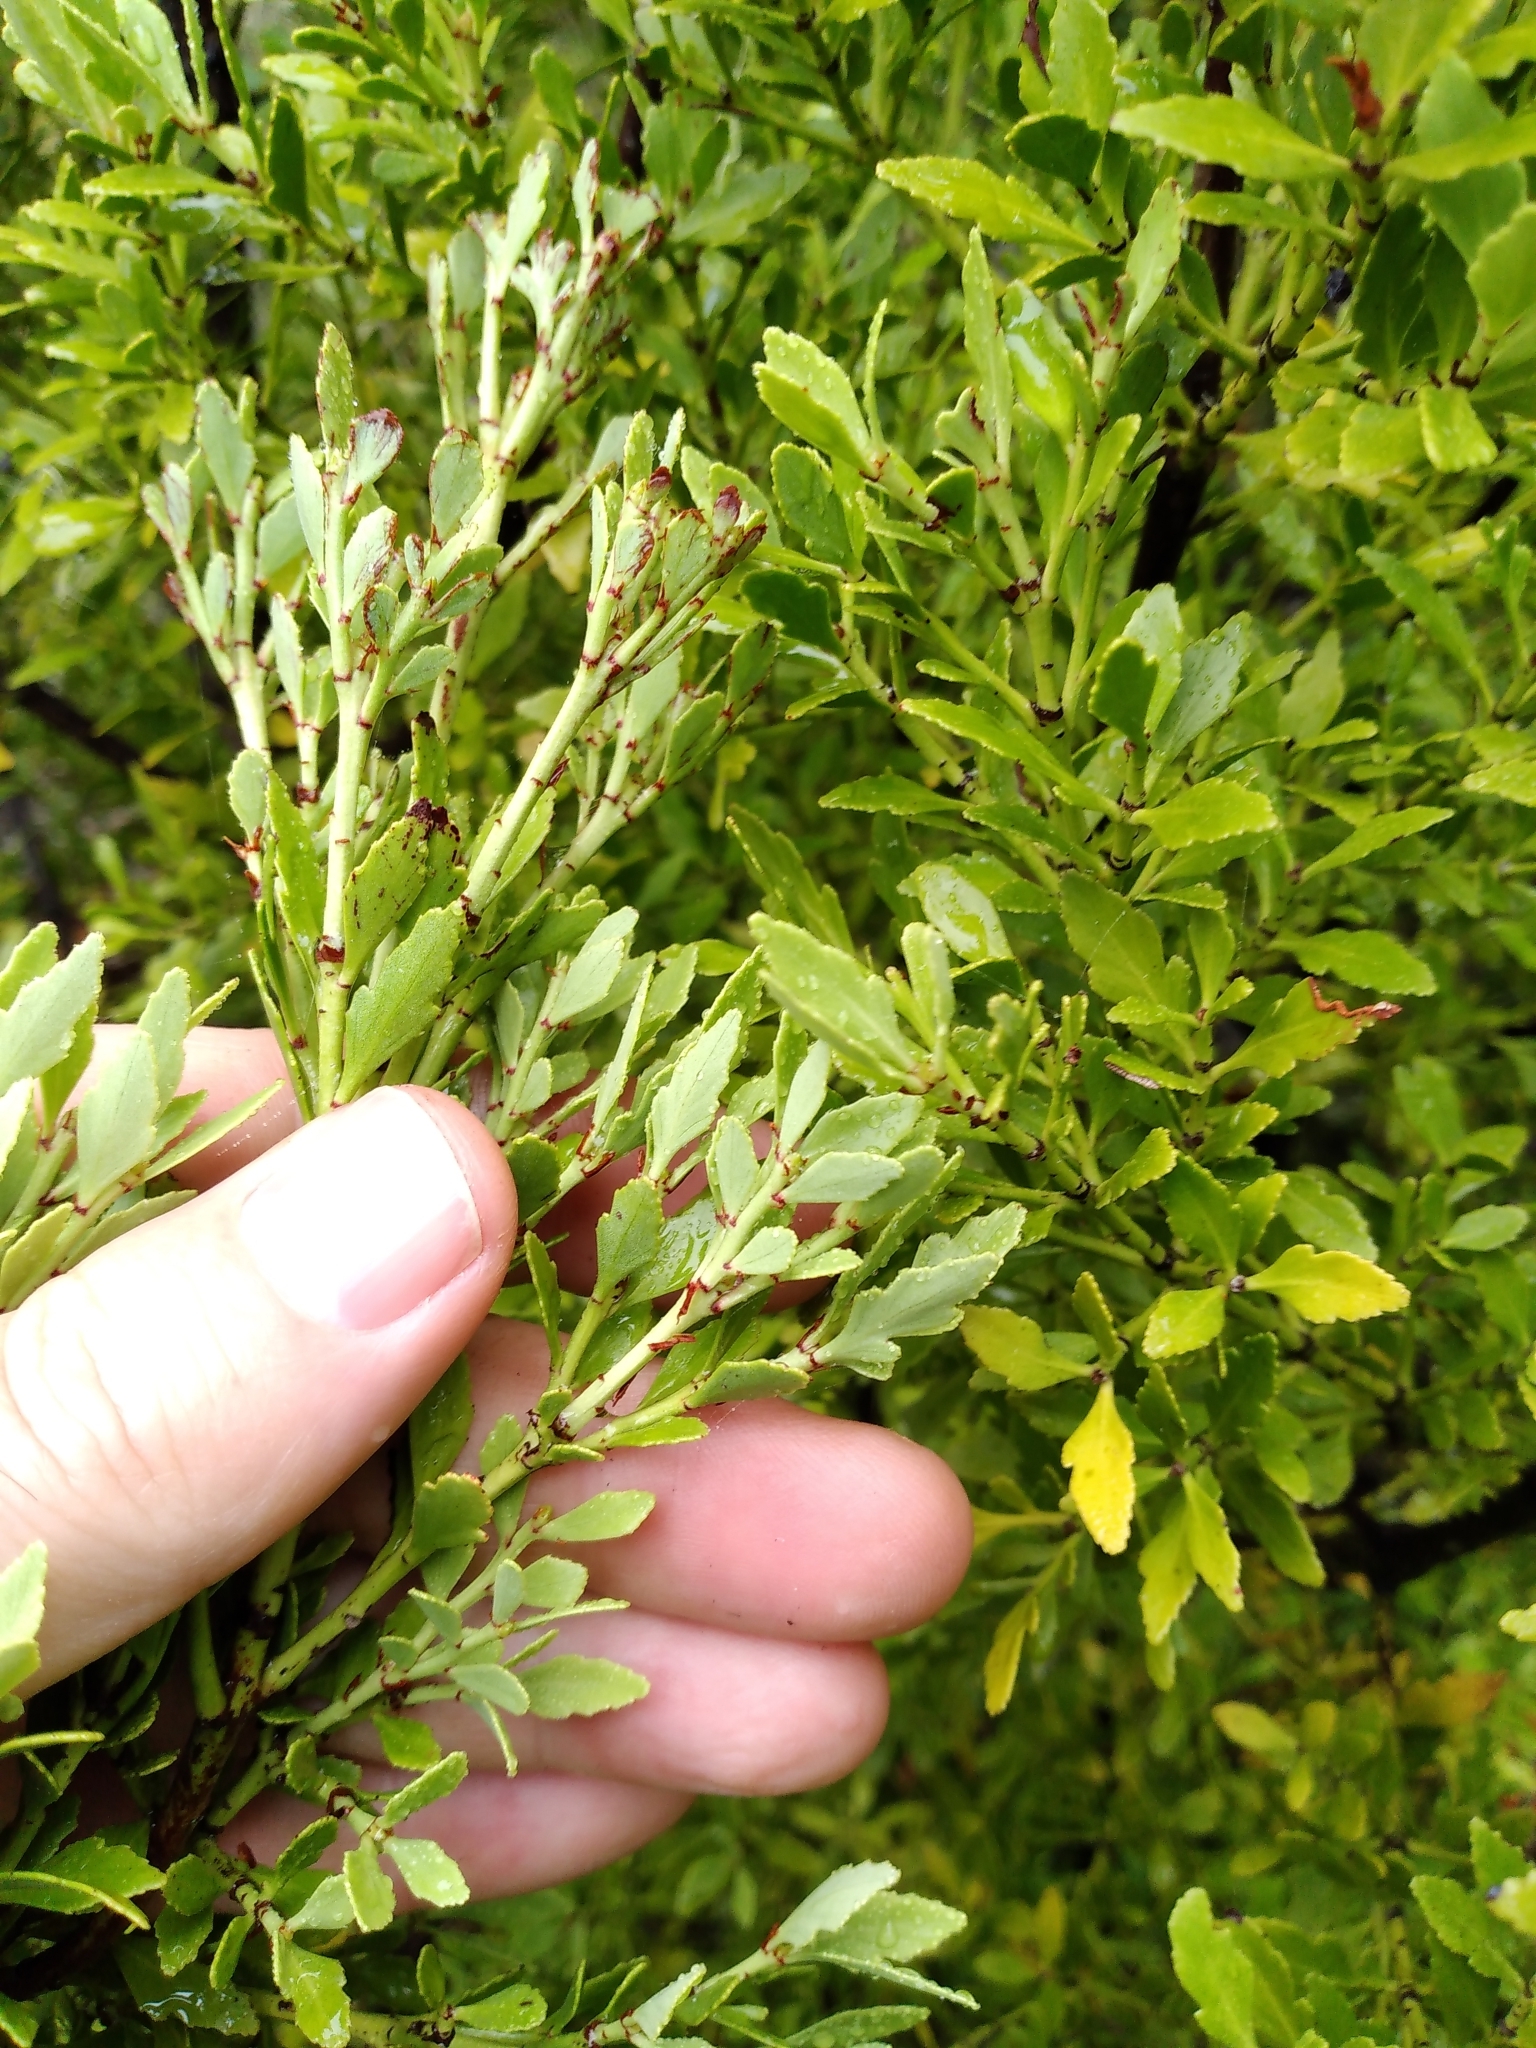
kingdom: Plantae
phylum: Tracheophyta
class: Pinopsida
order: Pinales
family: Phyllocladaceae
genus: Phyllocladus
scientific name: Phyllocladus trichomanoides
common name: Celery pine
